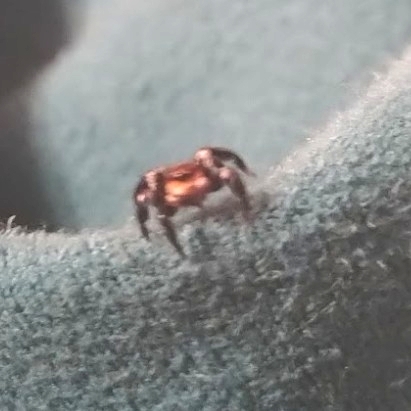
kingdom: Animalia
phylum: Arthropoda
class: Arachnida
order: Araneae
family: Salticidae
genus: Corythalia
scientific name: Corythalia conferta
